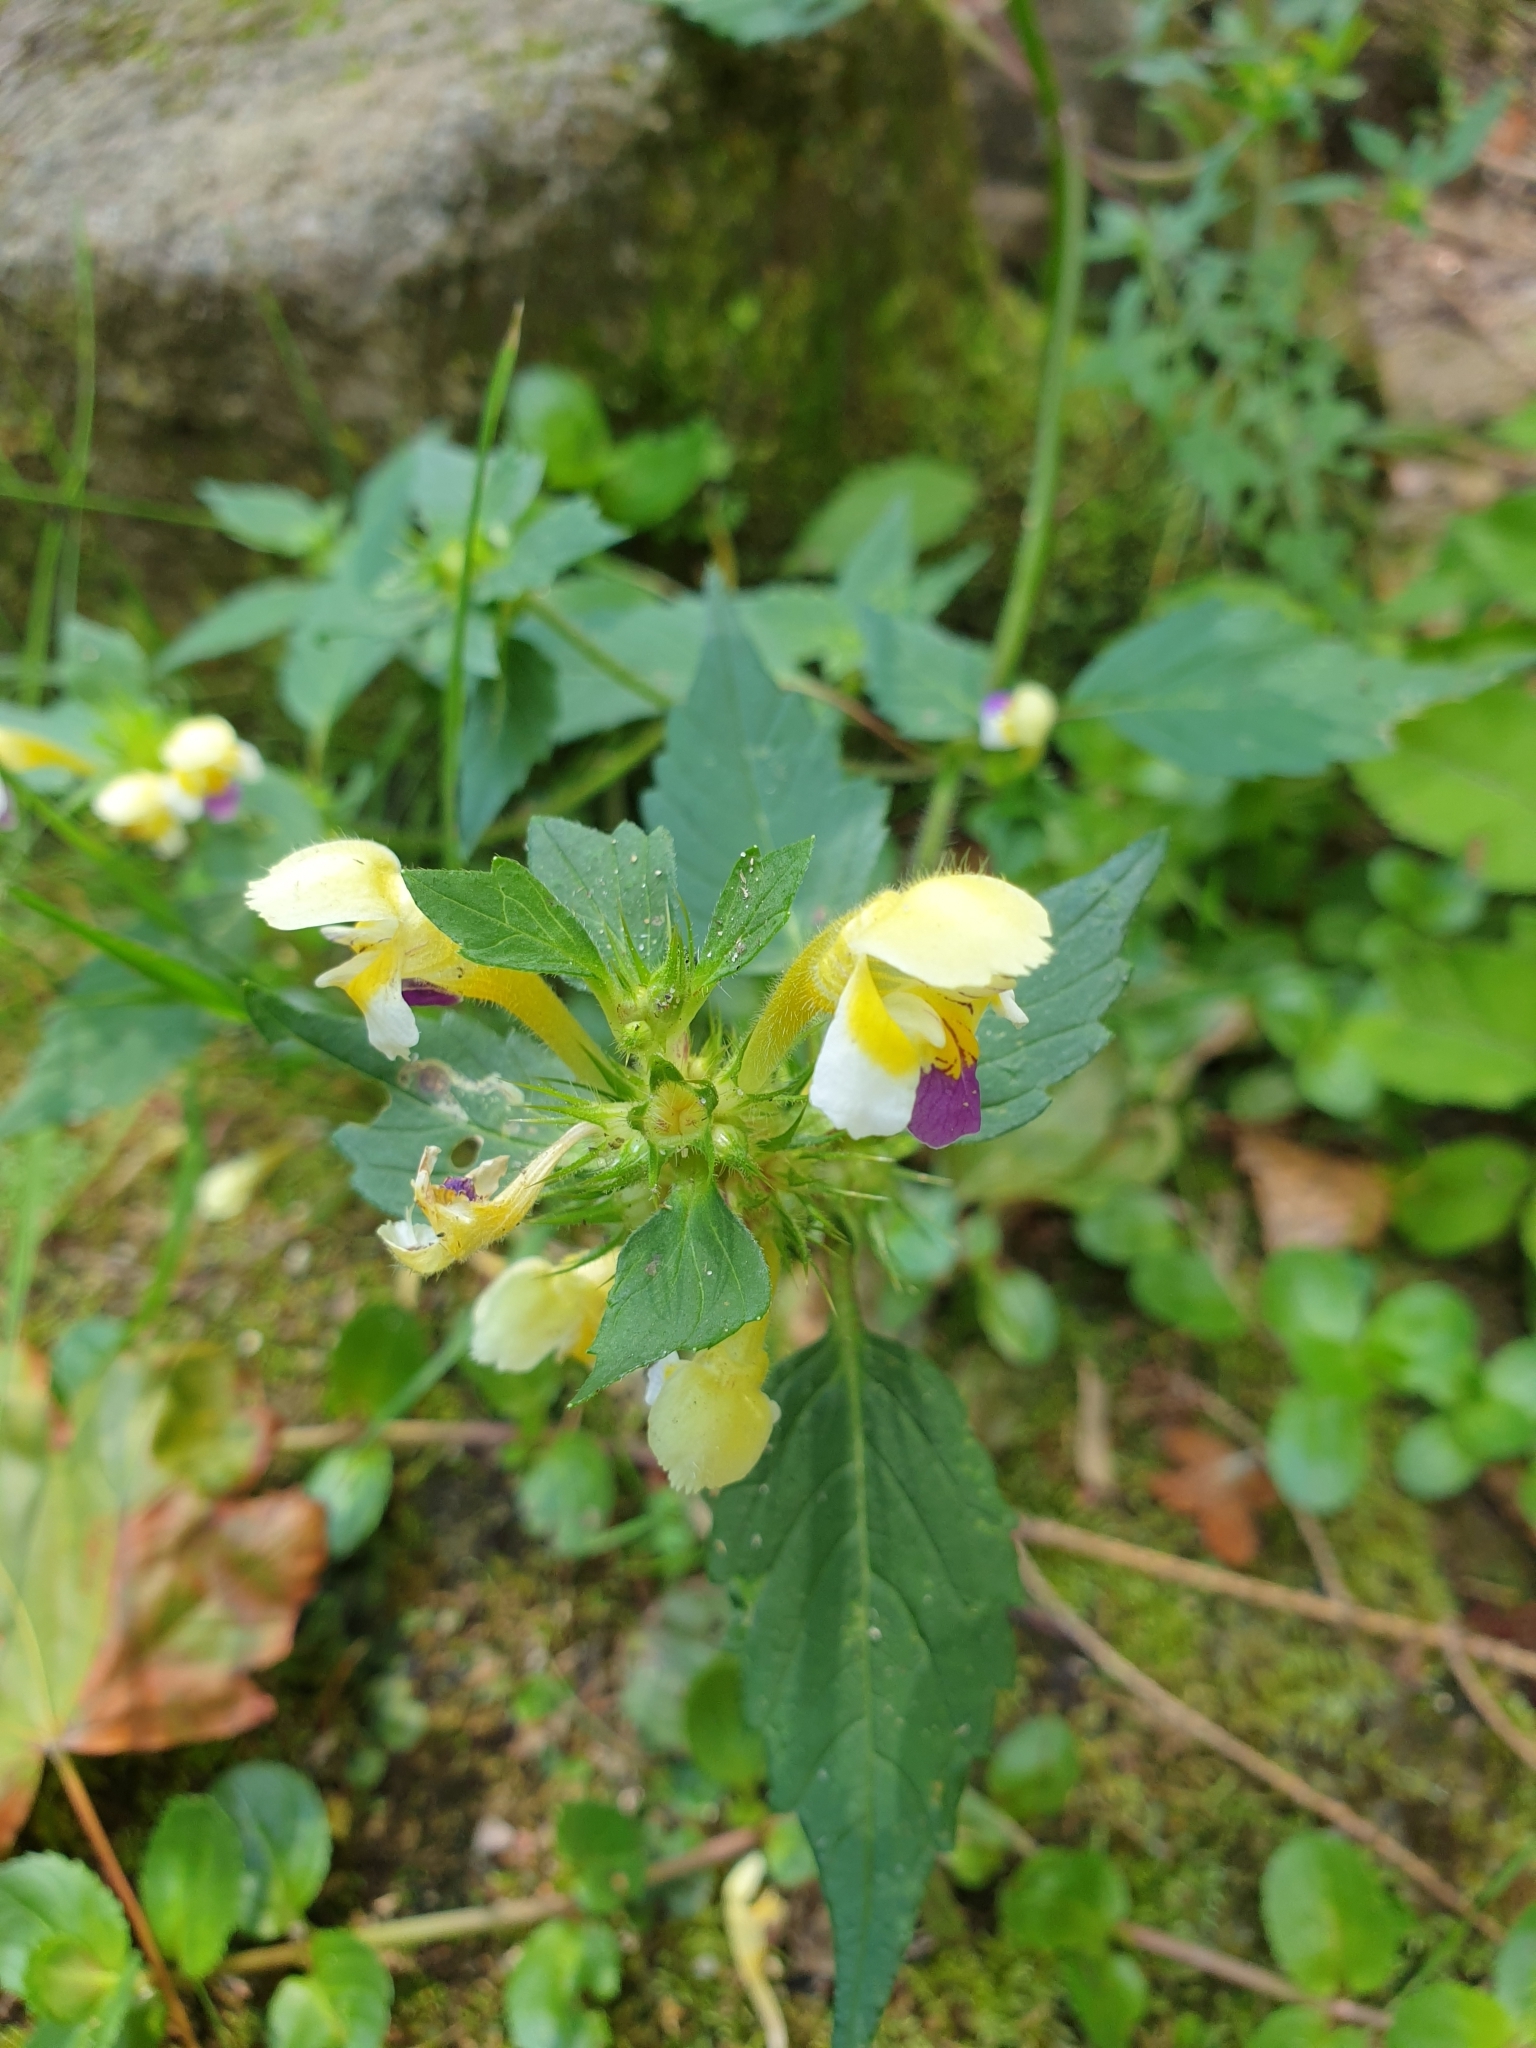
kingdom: Plantae
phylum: Tracheophyta
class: Magnoliopsida
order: Lamiales
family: Lamiaceae
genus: Galeopsis
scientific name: Galeopsis speciosa
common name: Large-flowered hemp-nettle
